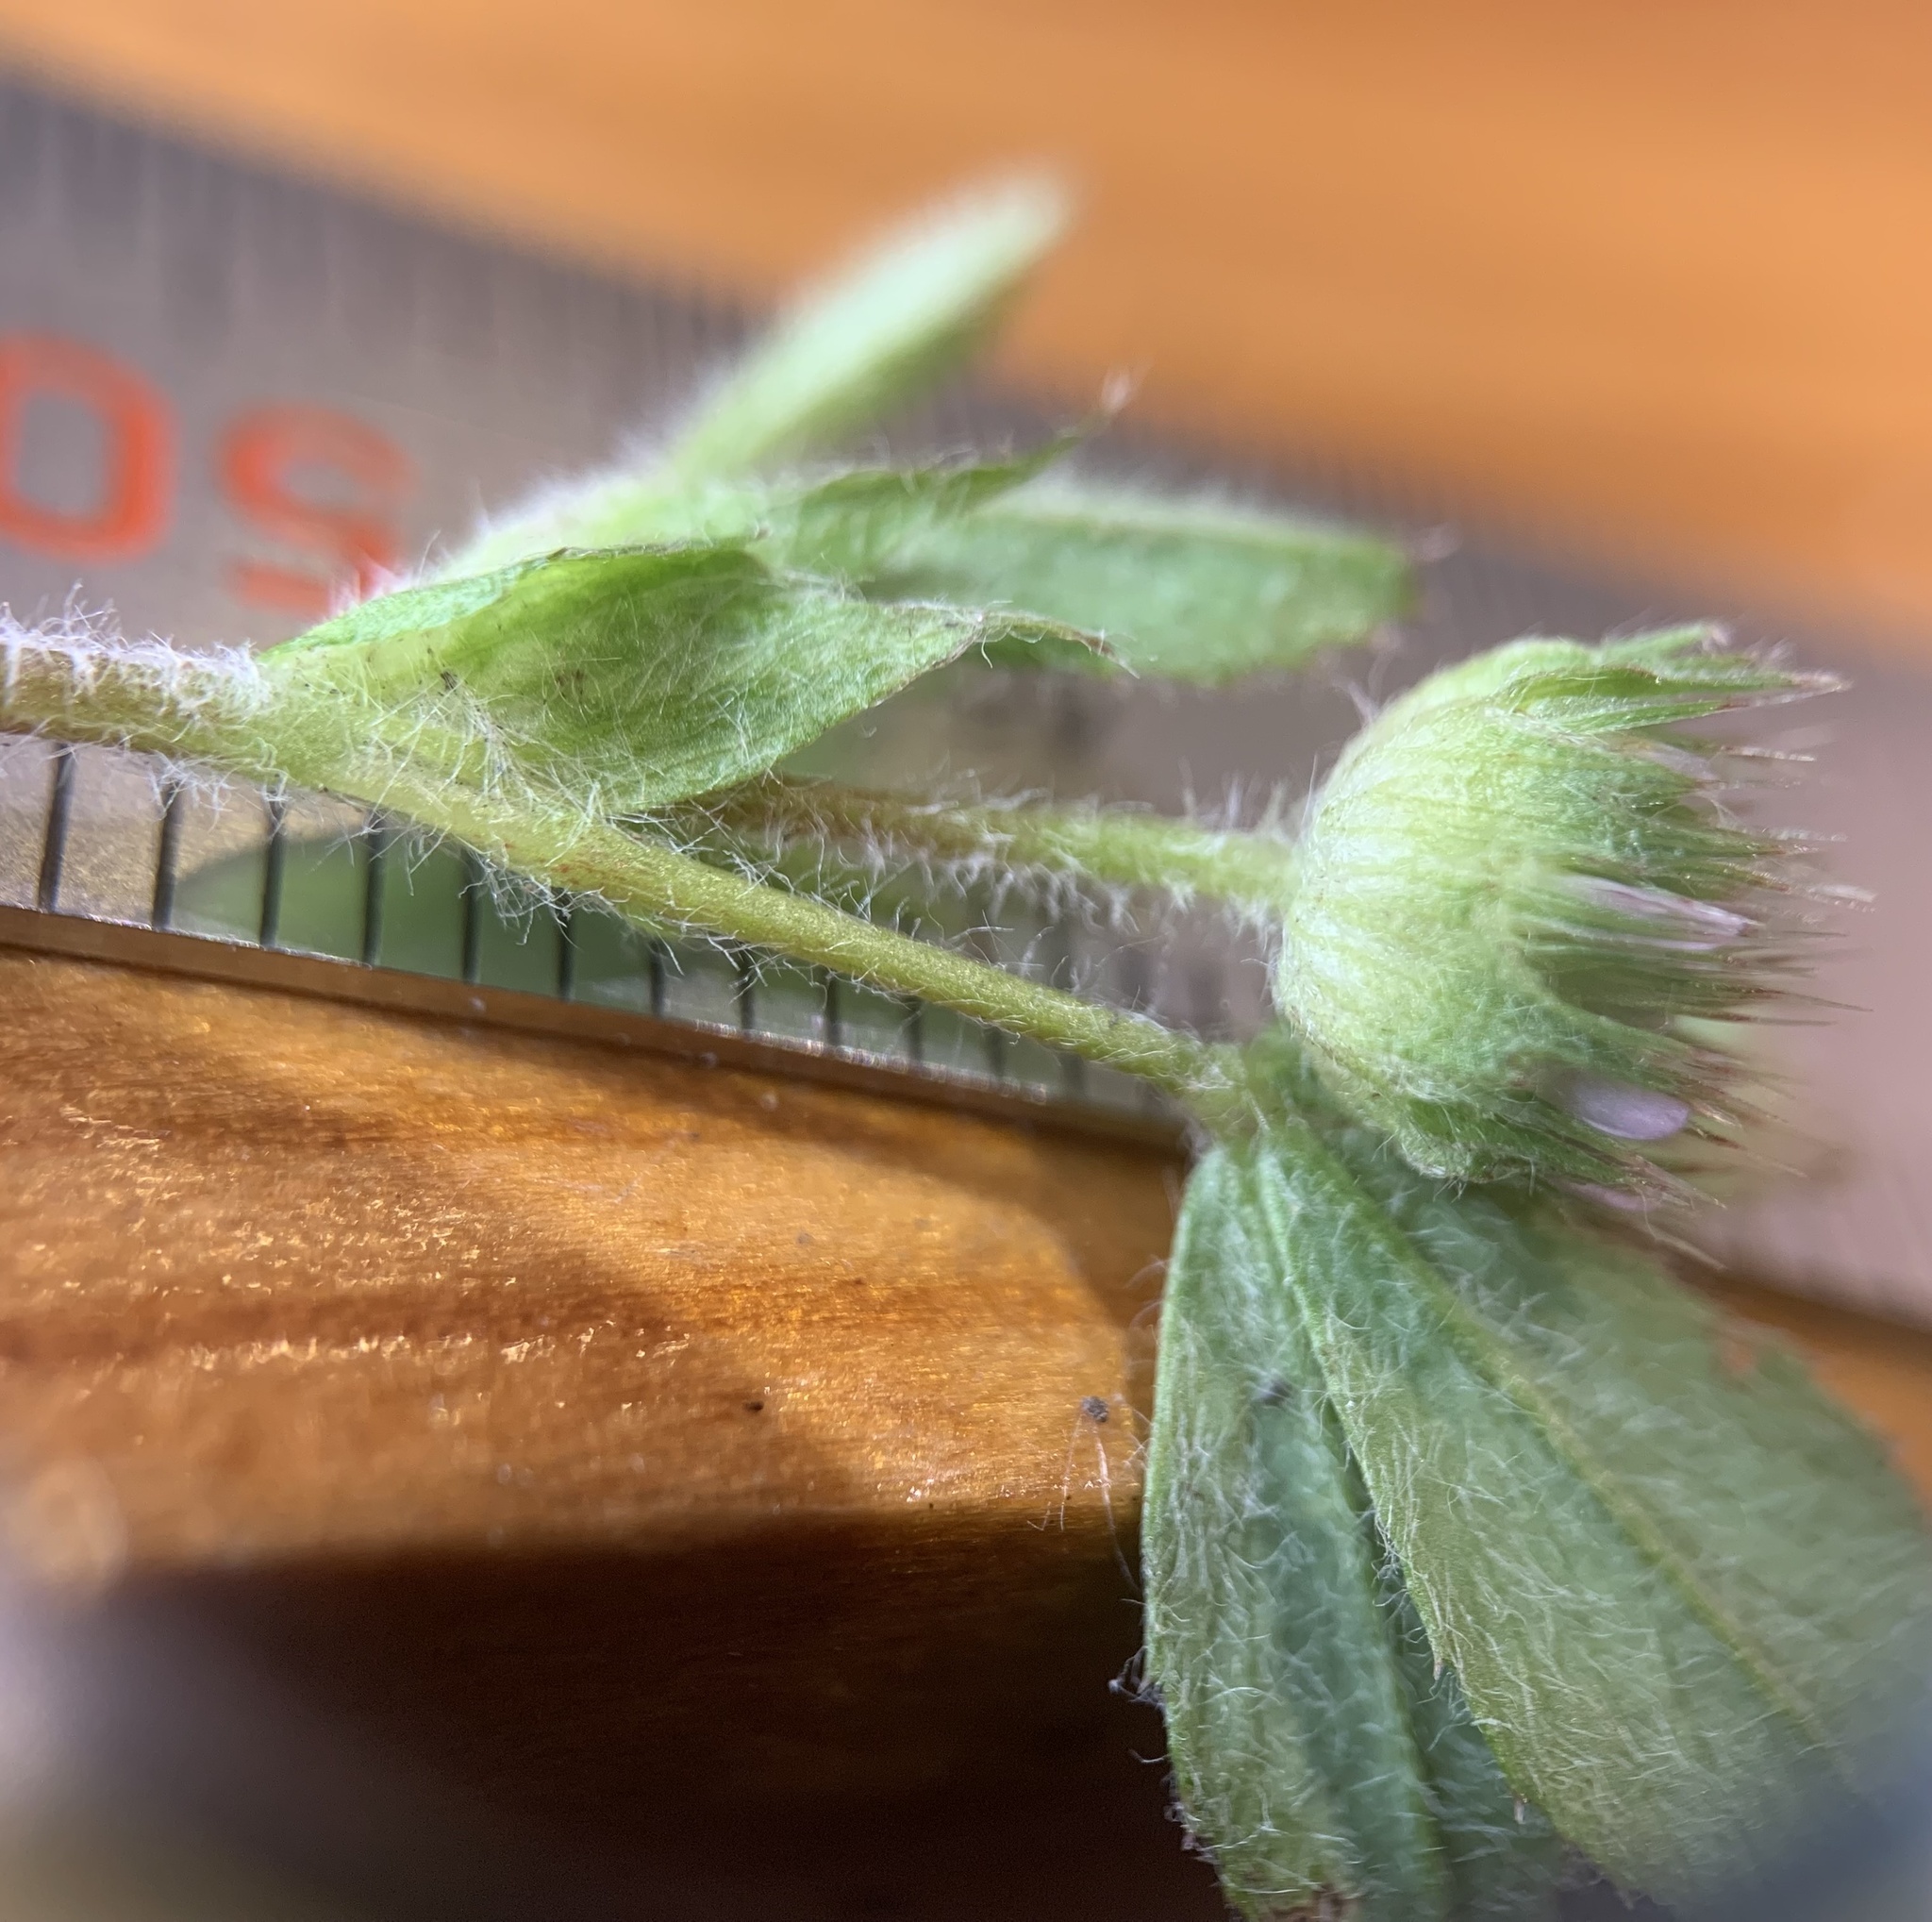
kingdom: Plantae
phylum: Tracheophyta
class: Magnoliopsida
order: Fabales
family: Fabaceae
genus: Trifolium
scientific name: Trifolium microcephalum
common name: Maiden clover
